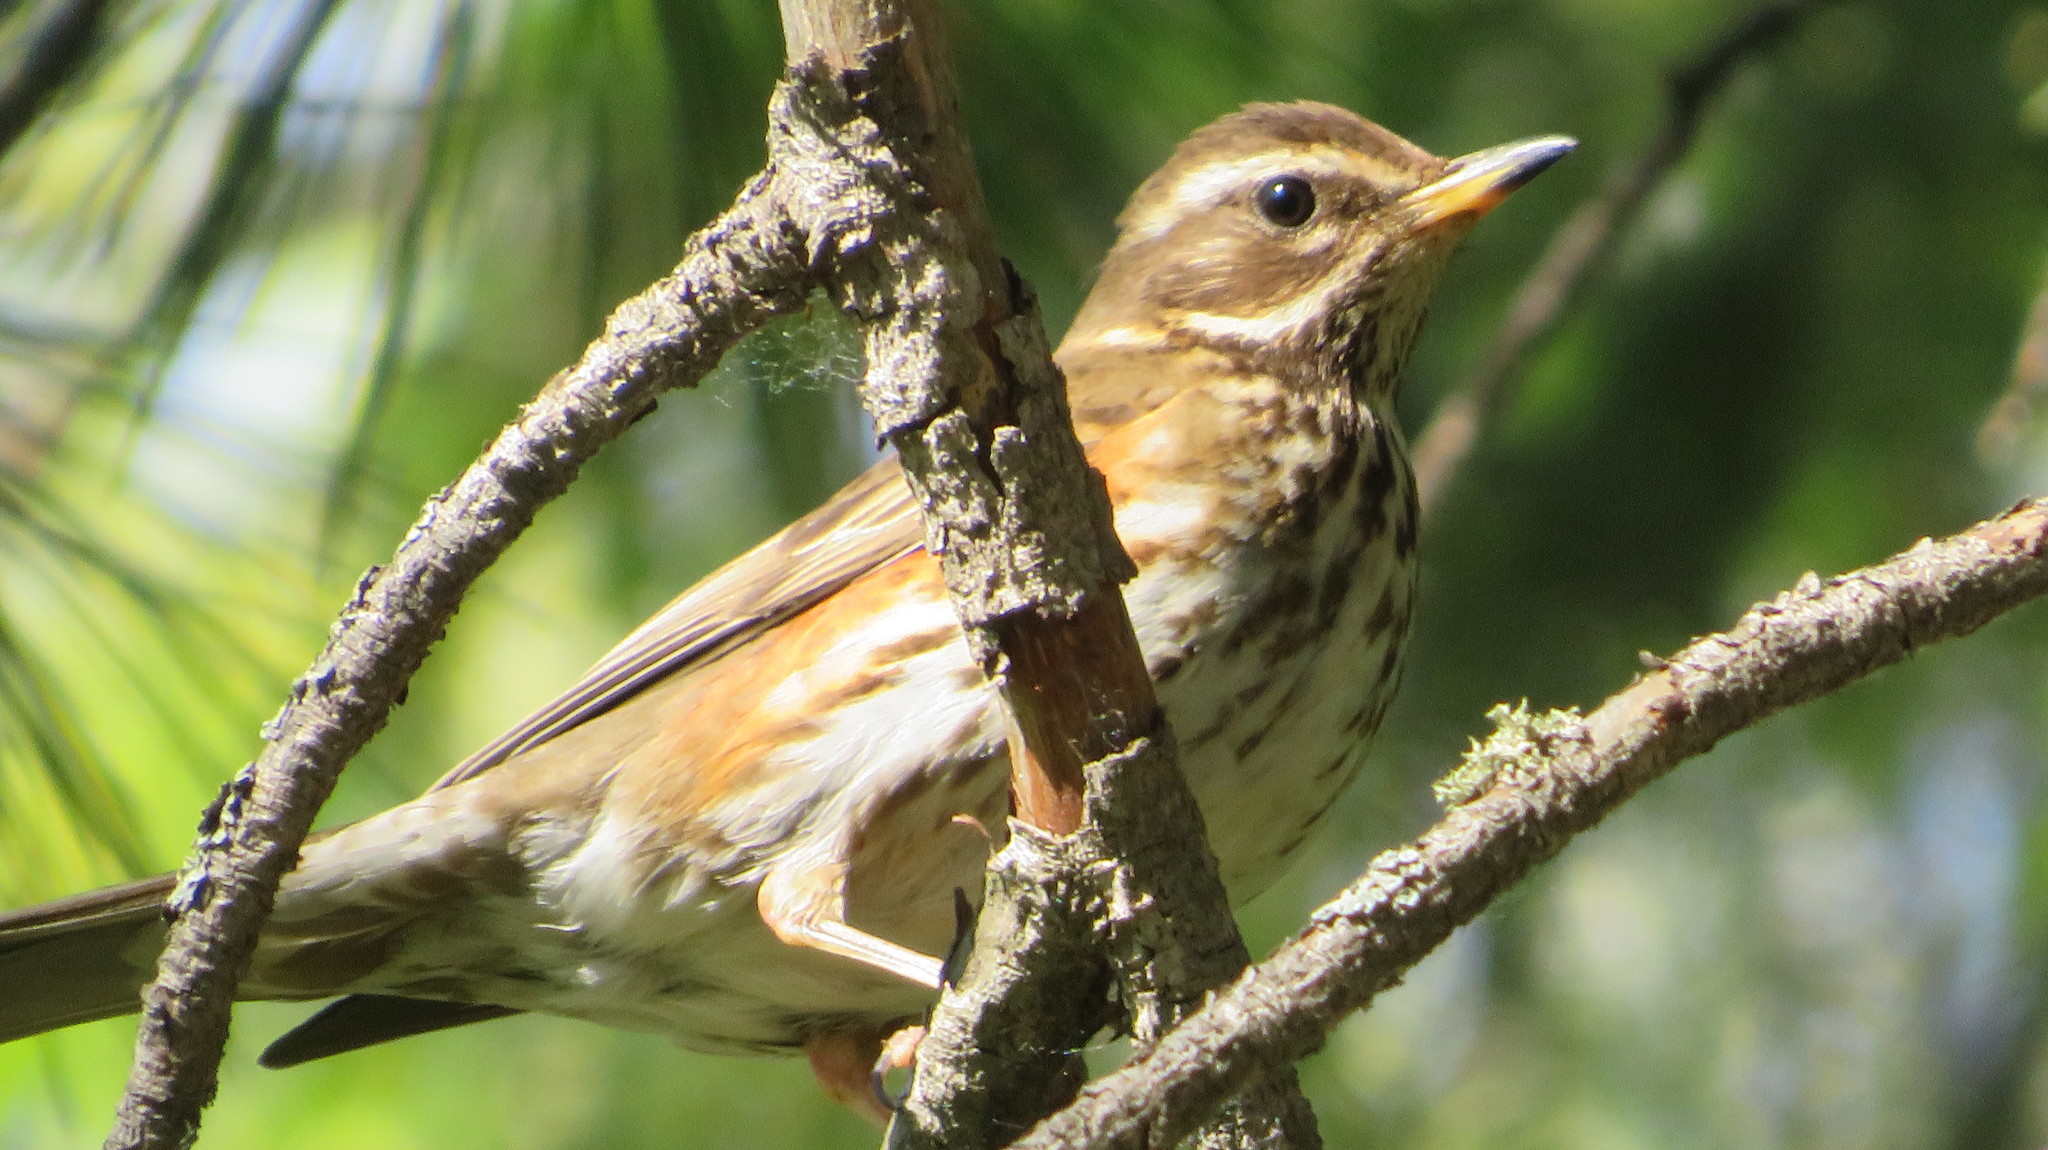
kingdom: Animalia
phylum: Chordata
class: Aves
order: Passeriformes
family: Turdidae
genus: Turdus
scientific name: Turdus iliacus
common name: Redwing
